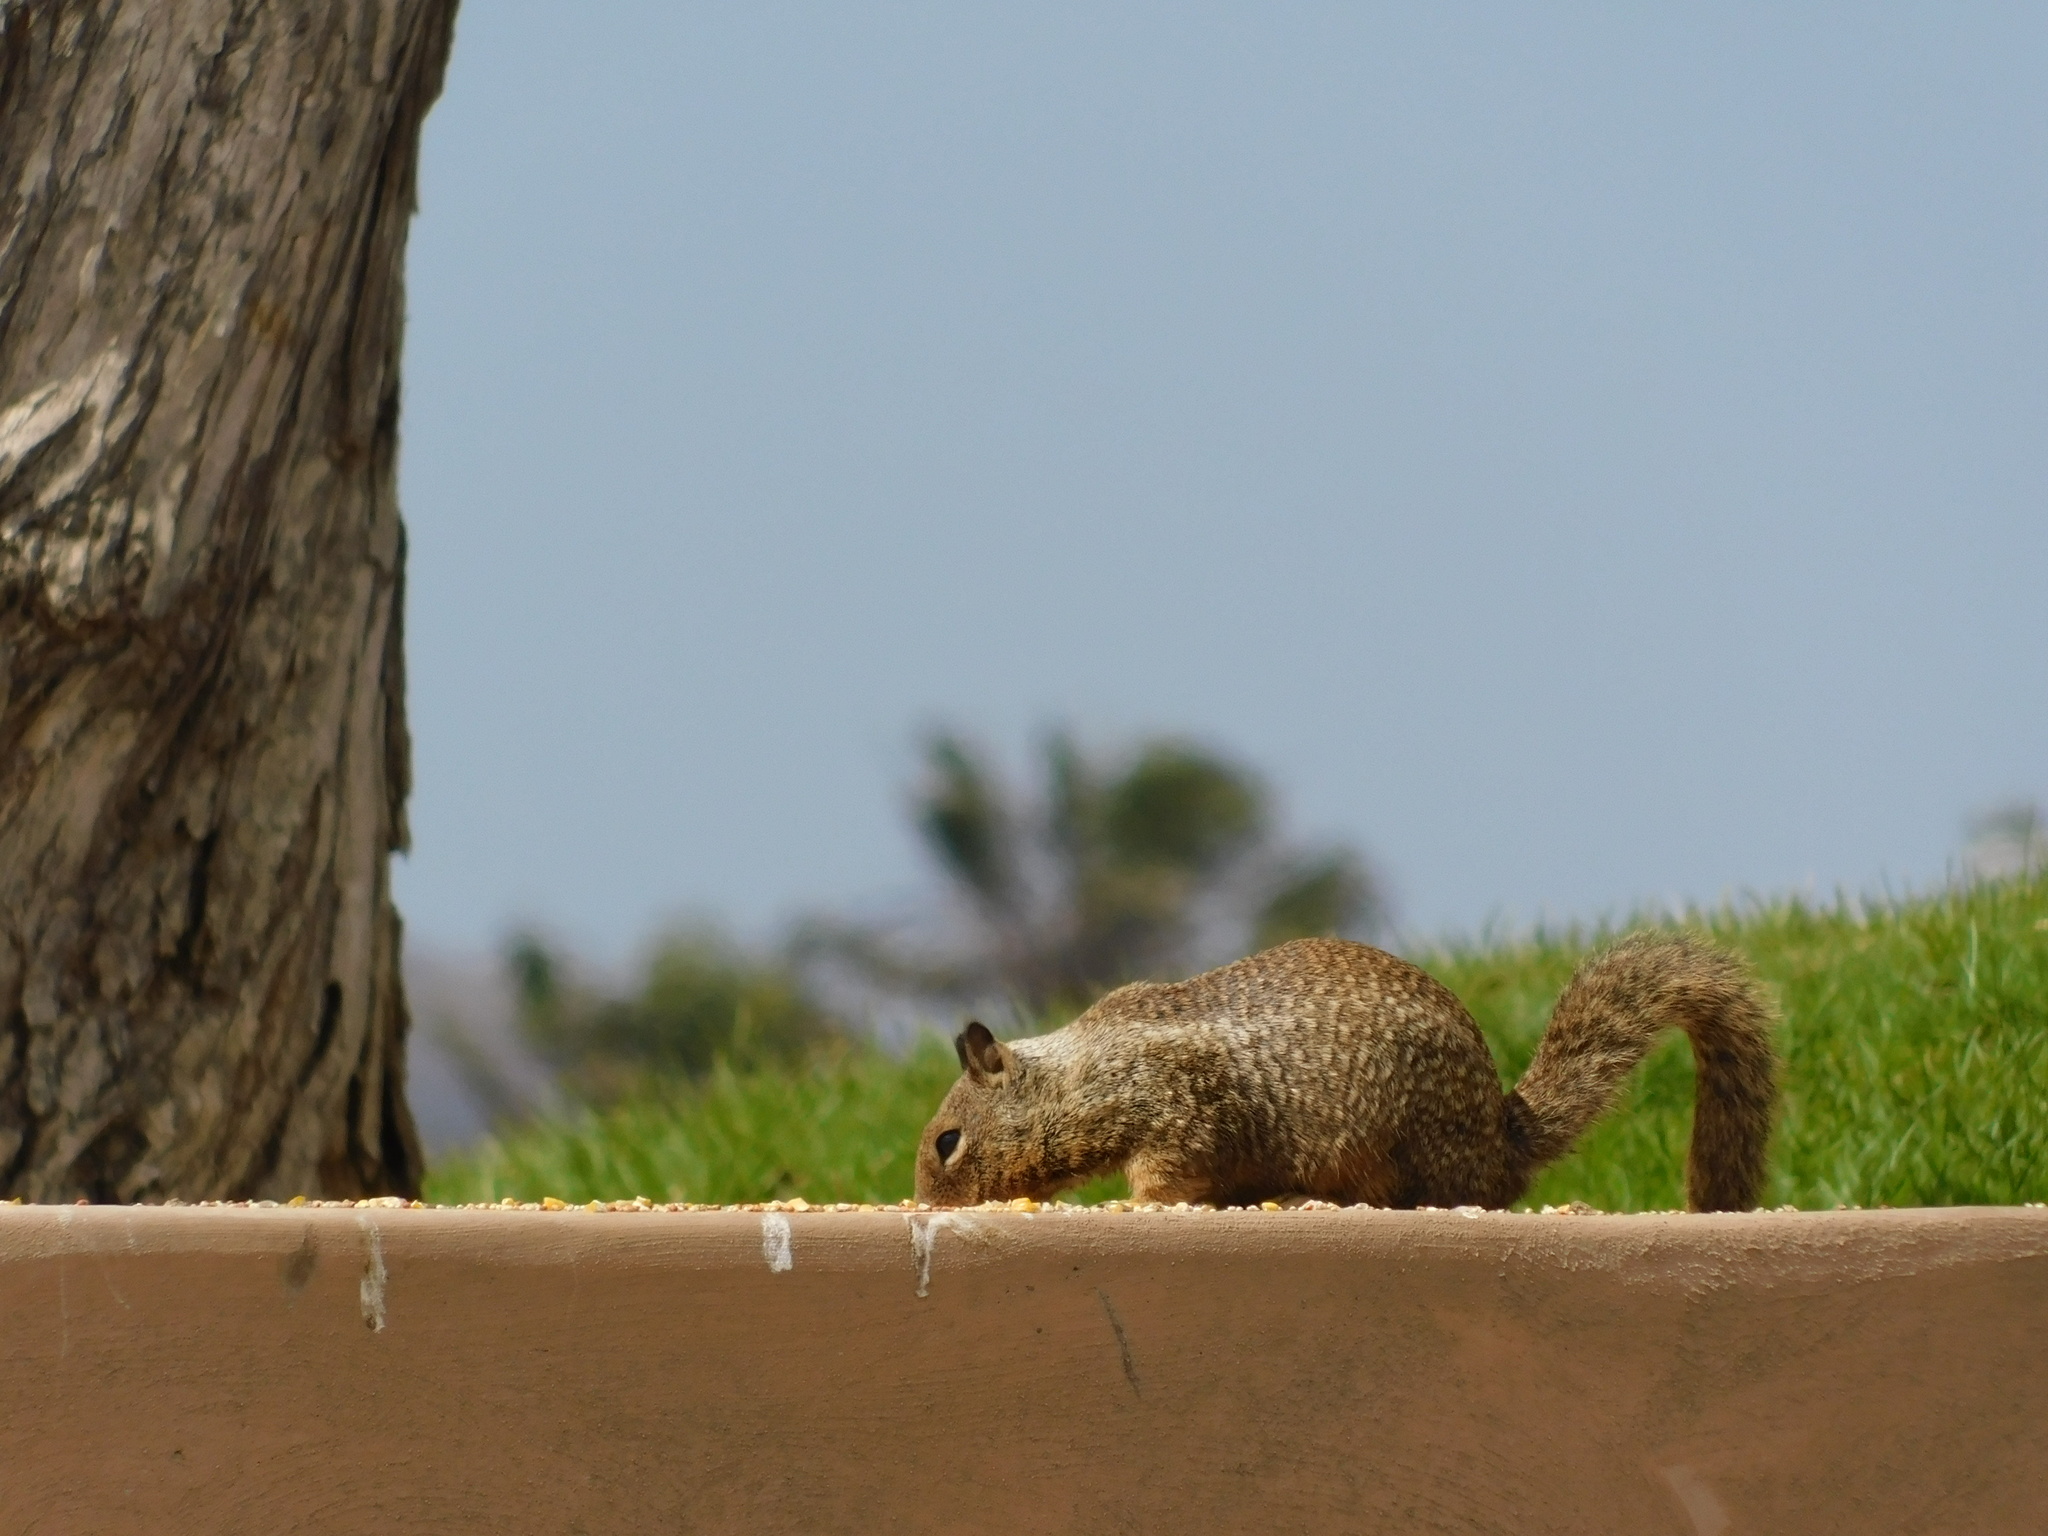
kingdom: Animalia
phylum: Chordata
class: Mammalia
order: Rodentia
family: Sciuridae
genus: Otospermophilus
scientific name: Otospermophilus beecheyi
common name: California ground squirrel
